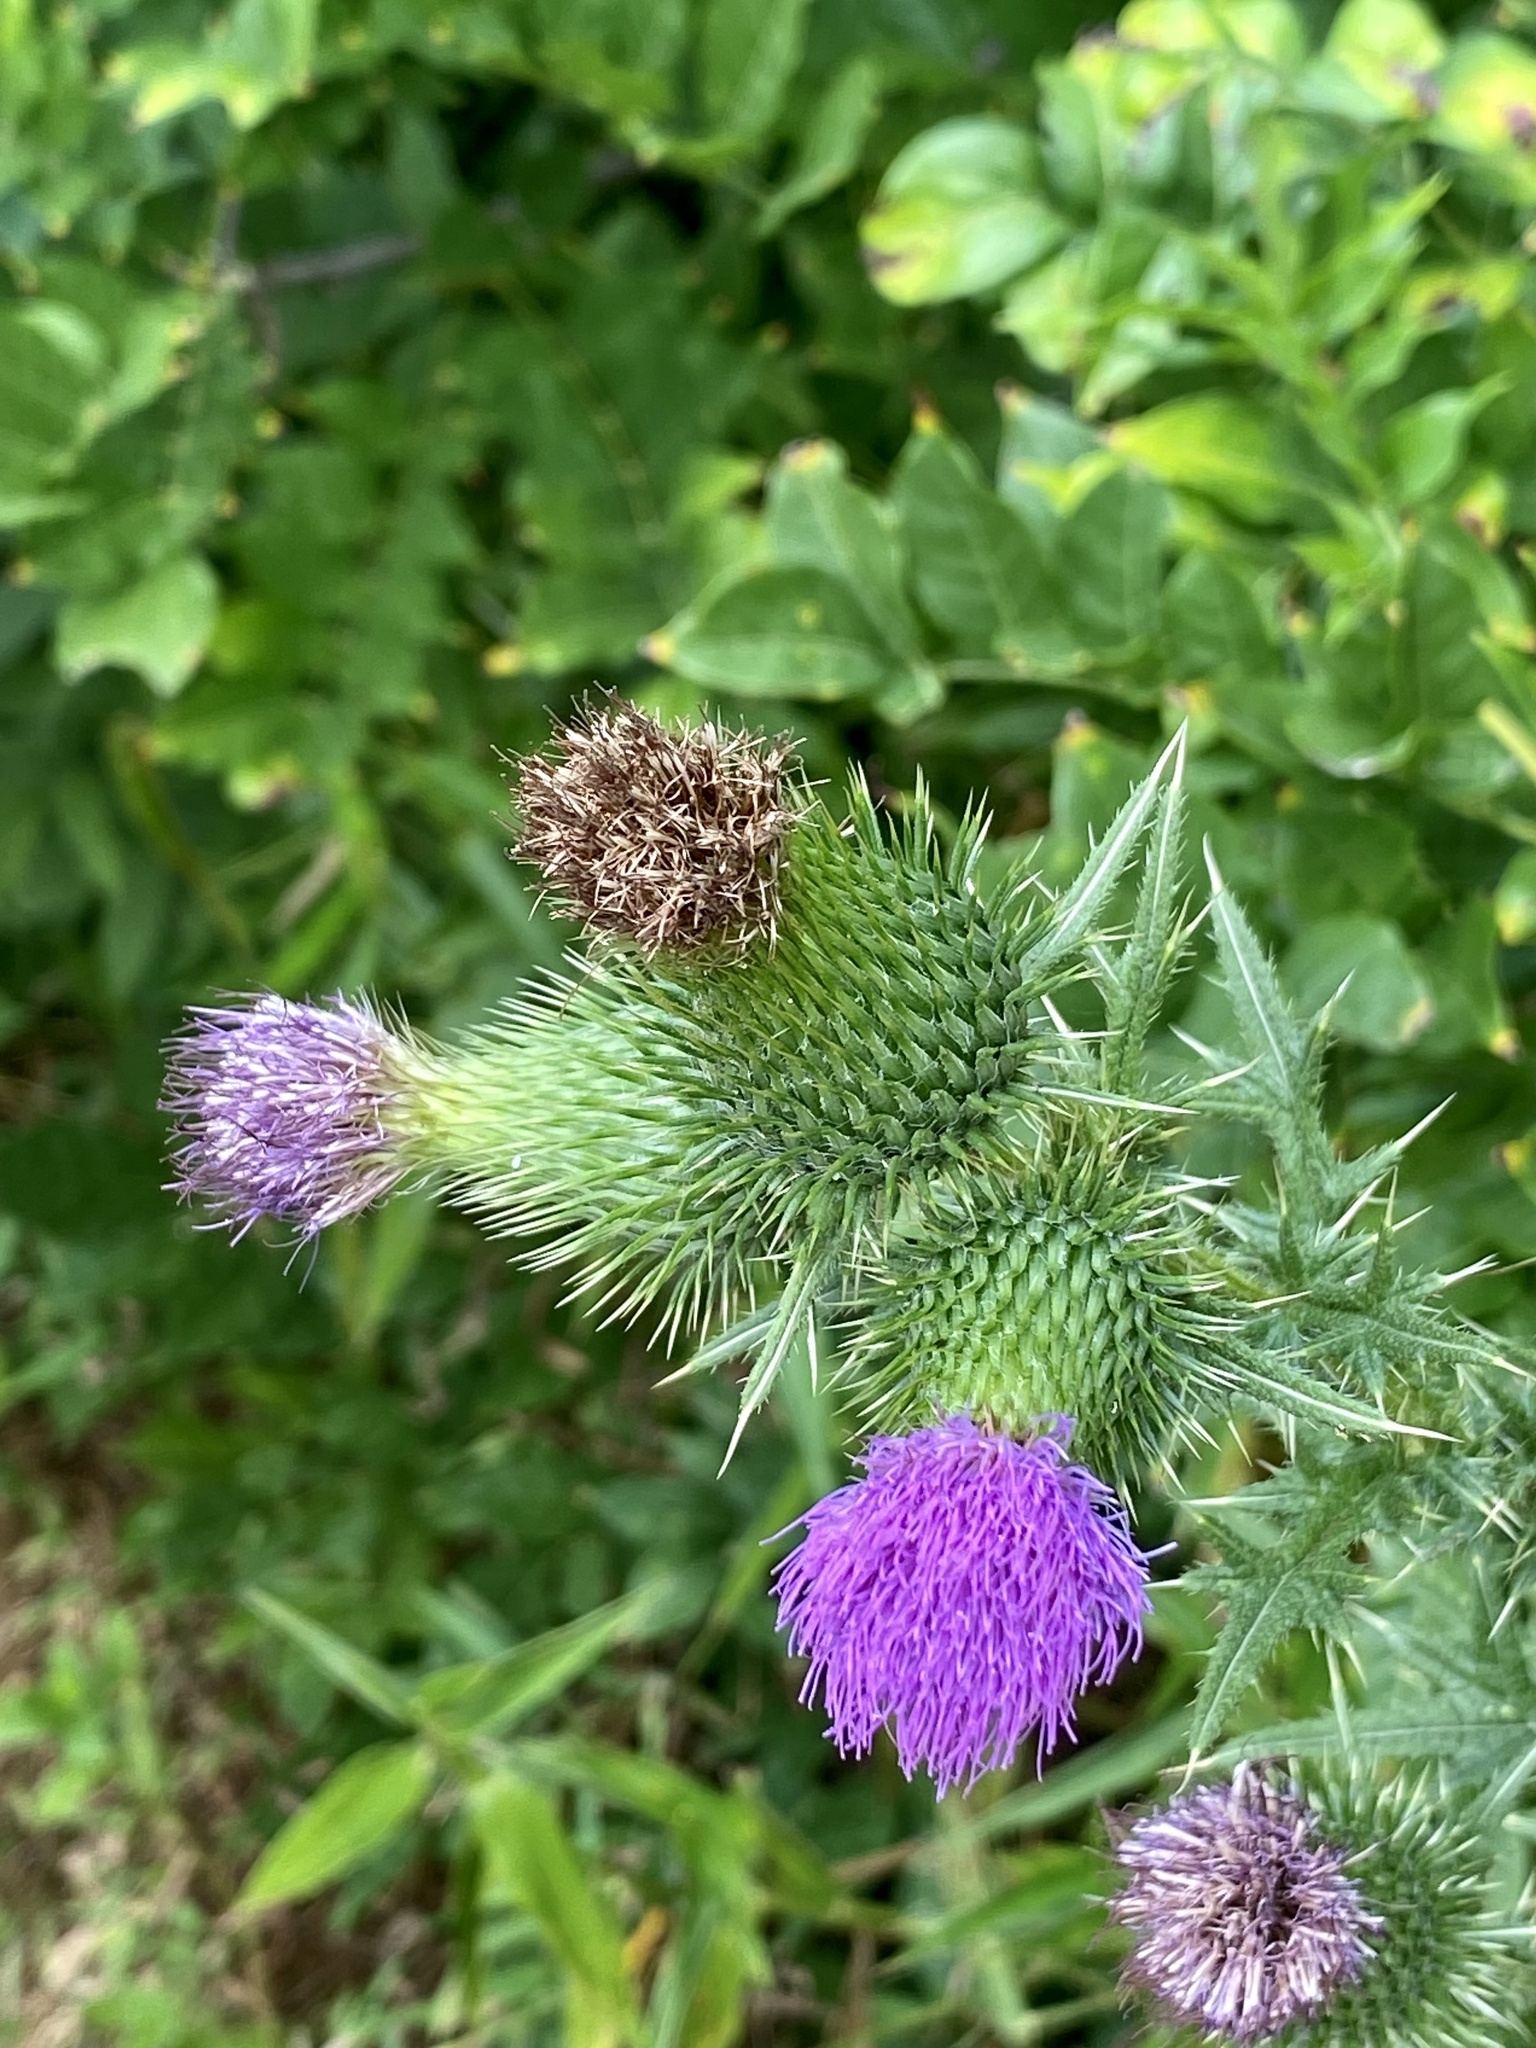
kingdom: Plantae
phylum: Tracheophyta
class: Magnoliopsida
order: Asterales
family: Asteraceae
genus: Cirsium
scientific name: Cirsium vulgare
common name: Bull thistle
